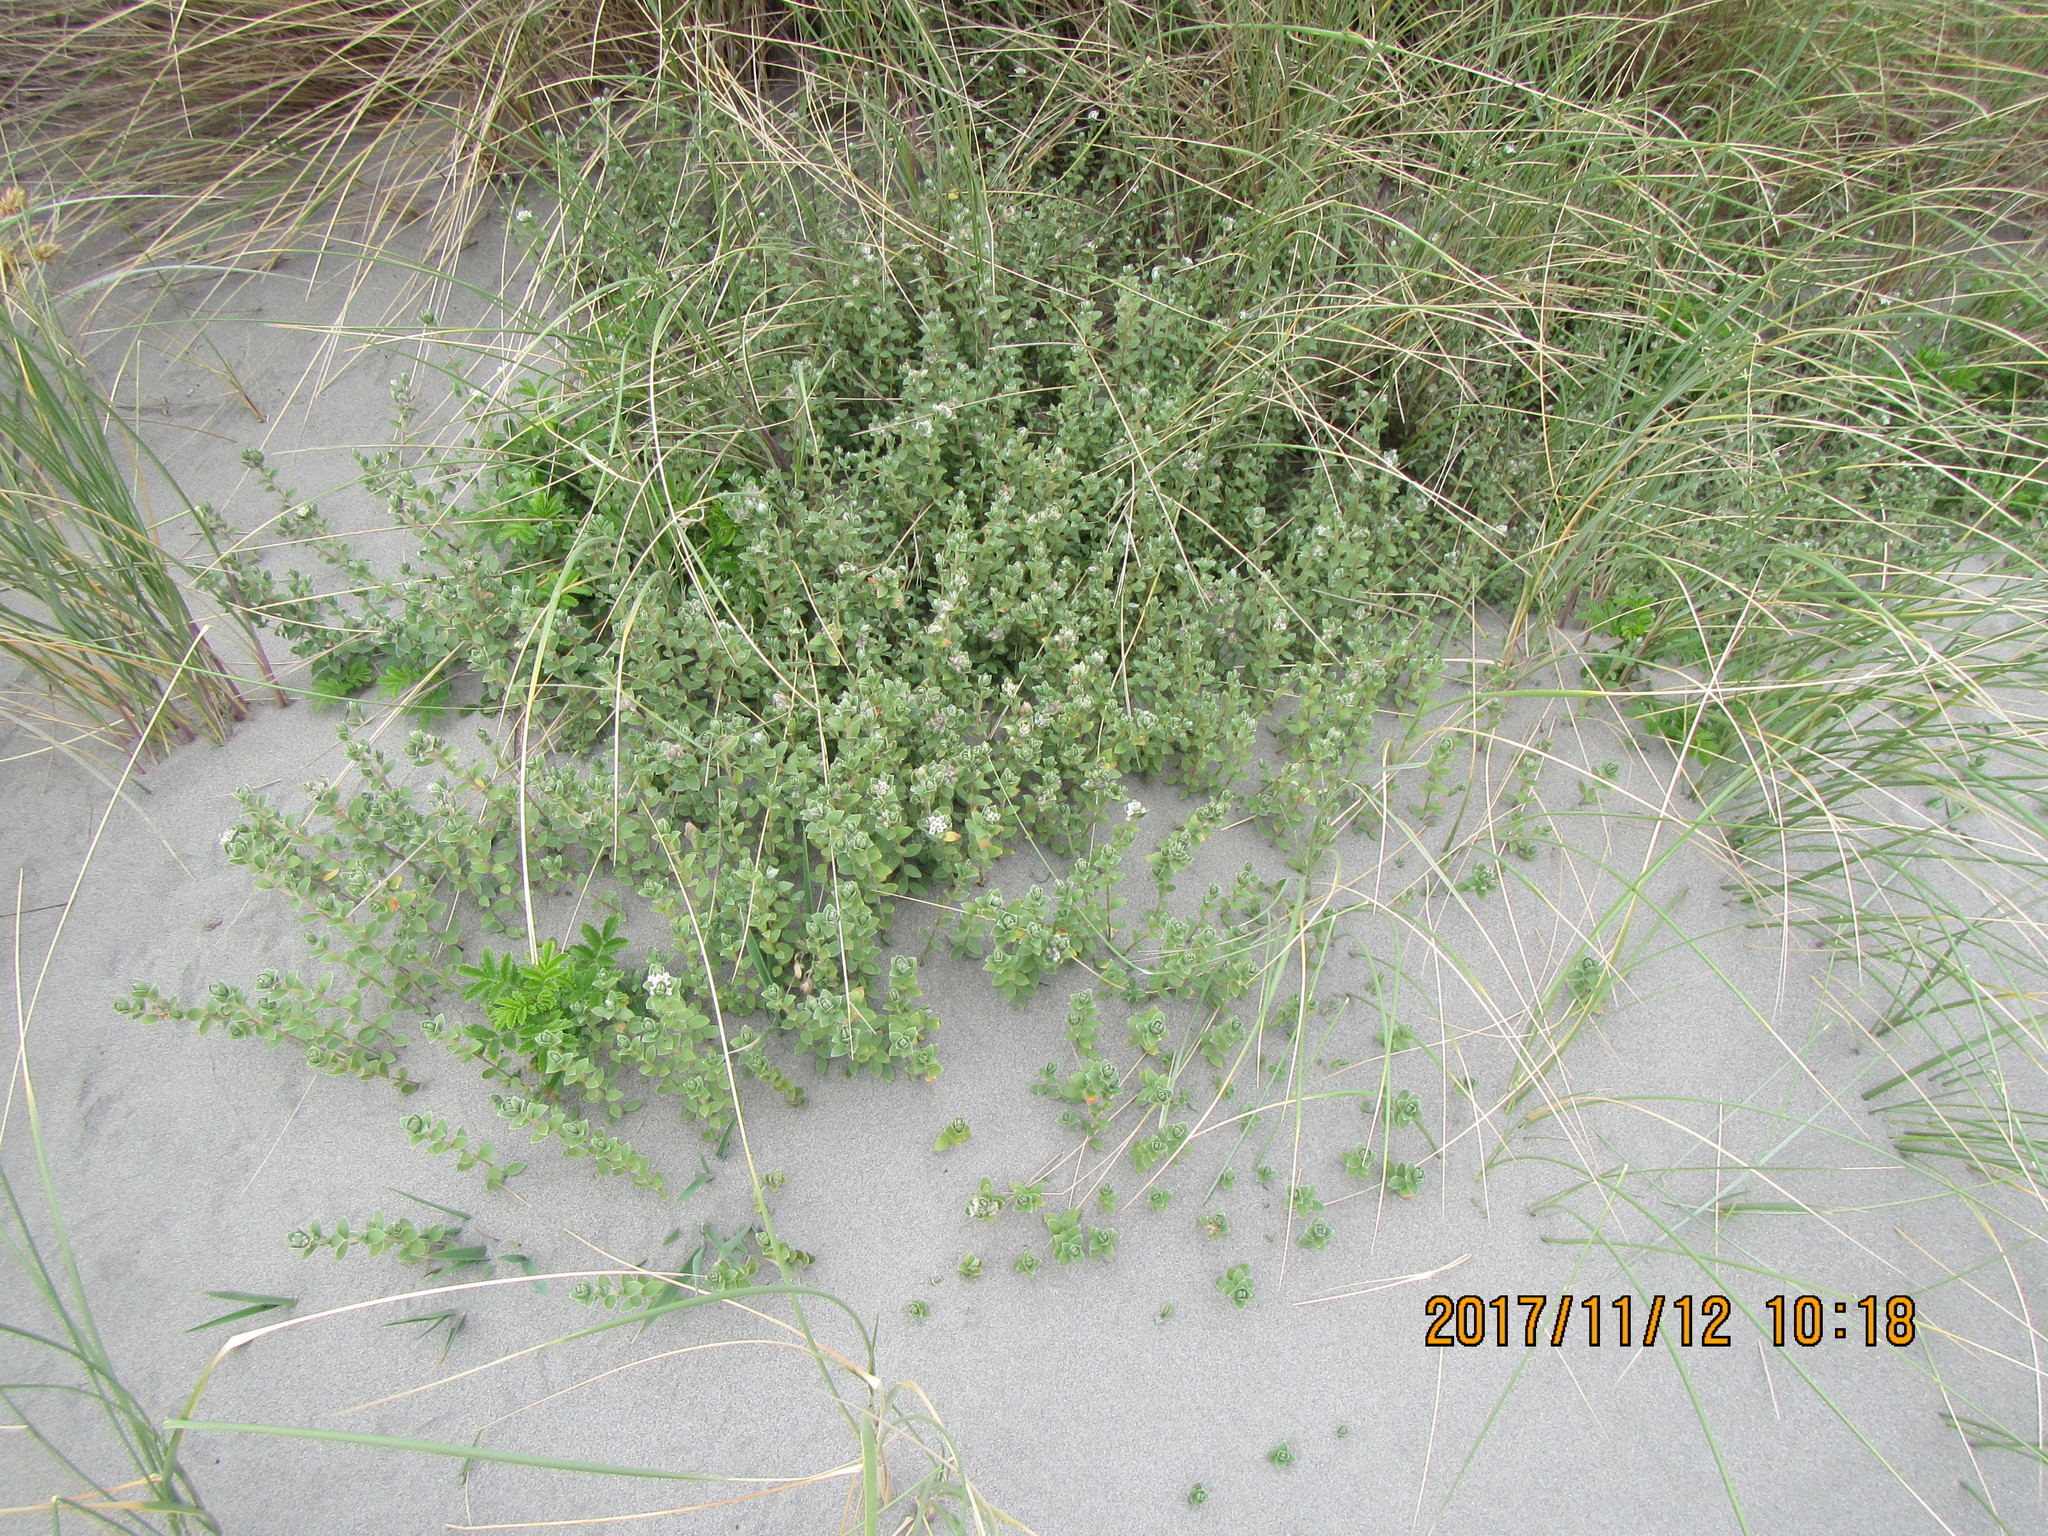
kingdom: Plantae
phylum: Tracheophyta
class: Magnoliopsida
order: Malvales
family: Thymelaeaceae
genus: Pimelea
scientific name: Pimelea villosa
